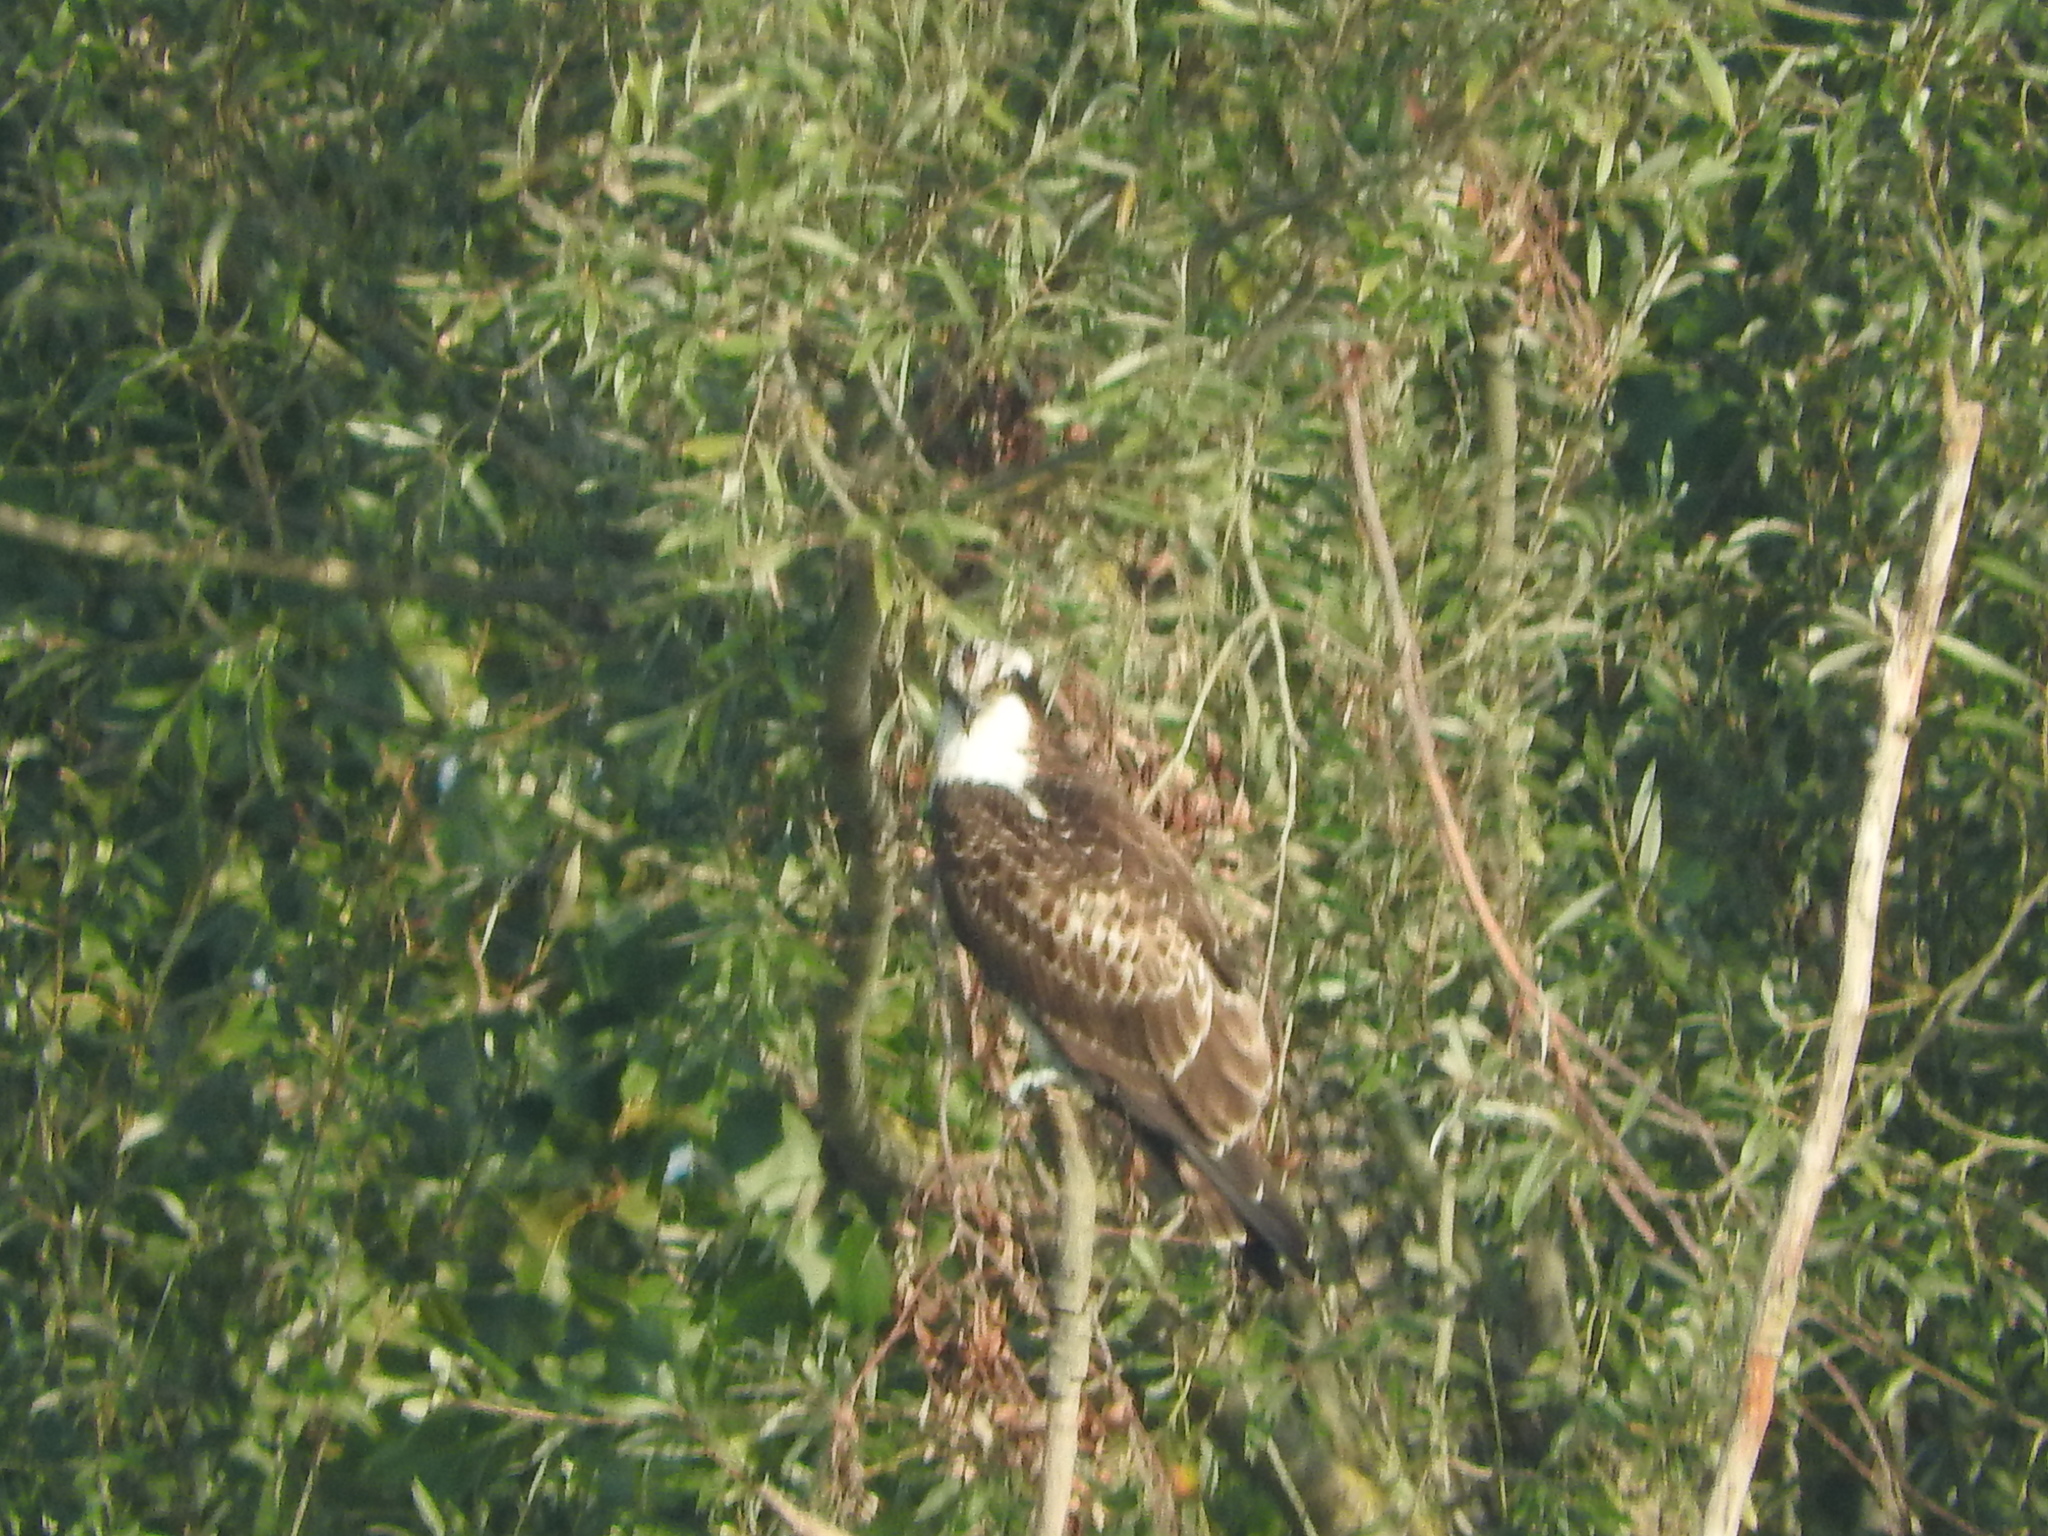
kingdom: Animalia
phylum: Chordata
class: Aves
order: Accipitriformes
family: Pandionidae
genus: Pandion
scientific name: Pandion haliaetus
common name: Osprey
